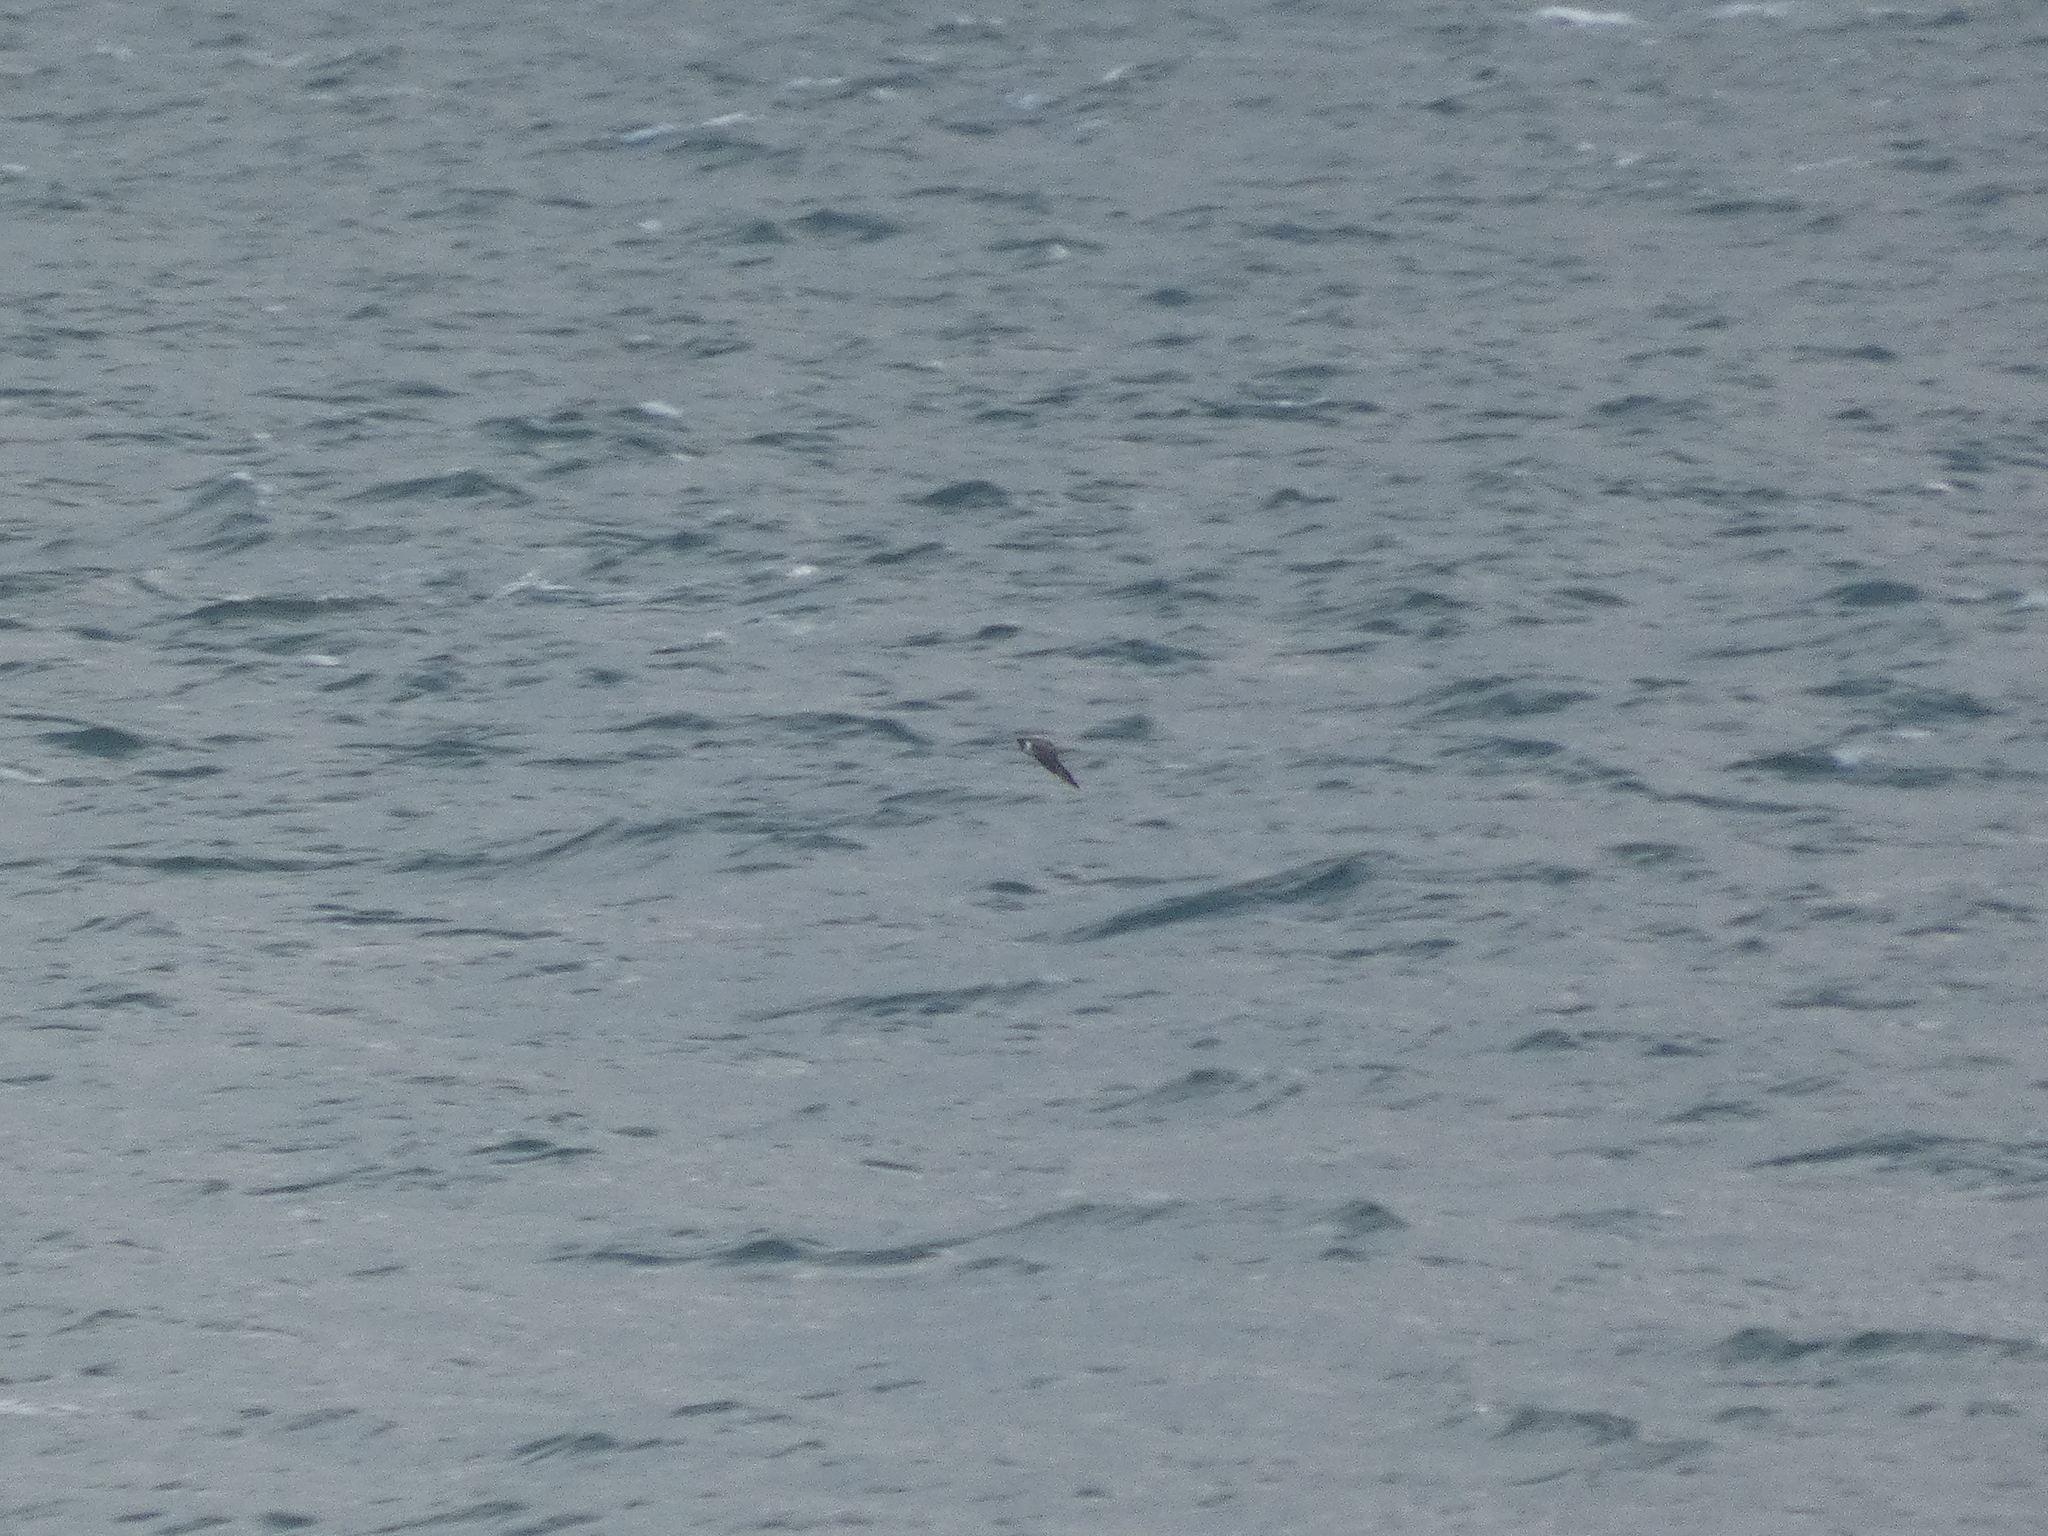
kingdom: Animalia
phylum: Chordata
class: Aves
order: Charadriiformes
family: Stercorariidae
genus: Stercorarius
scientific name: Stercorarius parasiticus
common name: Parasitic jaeger
